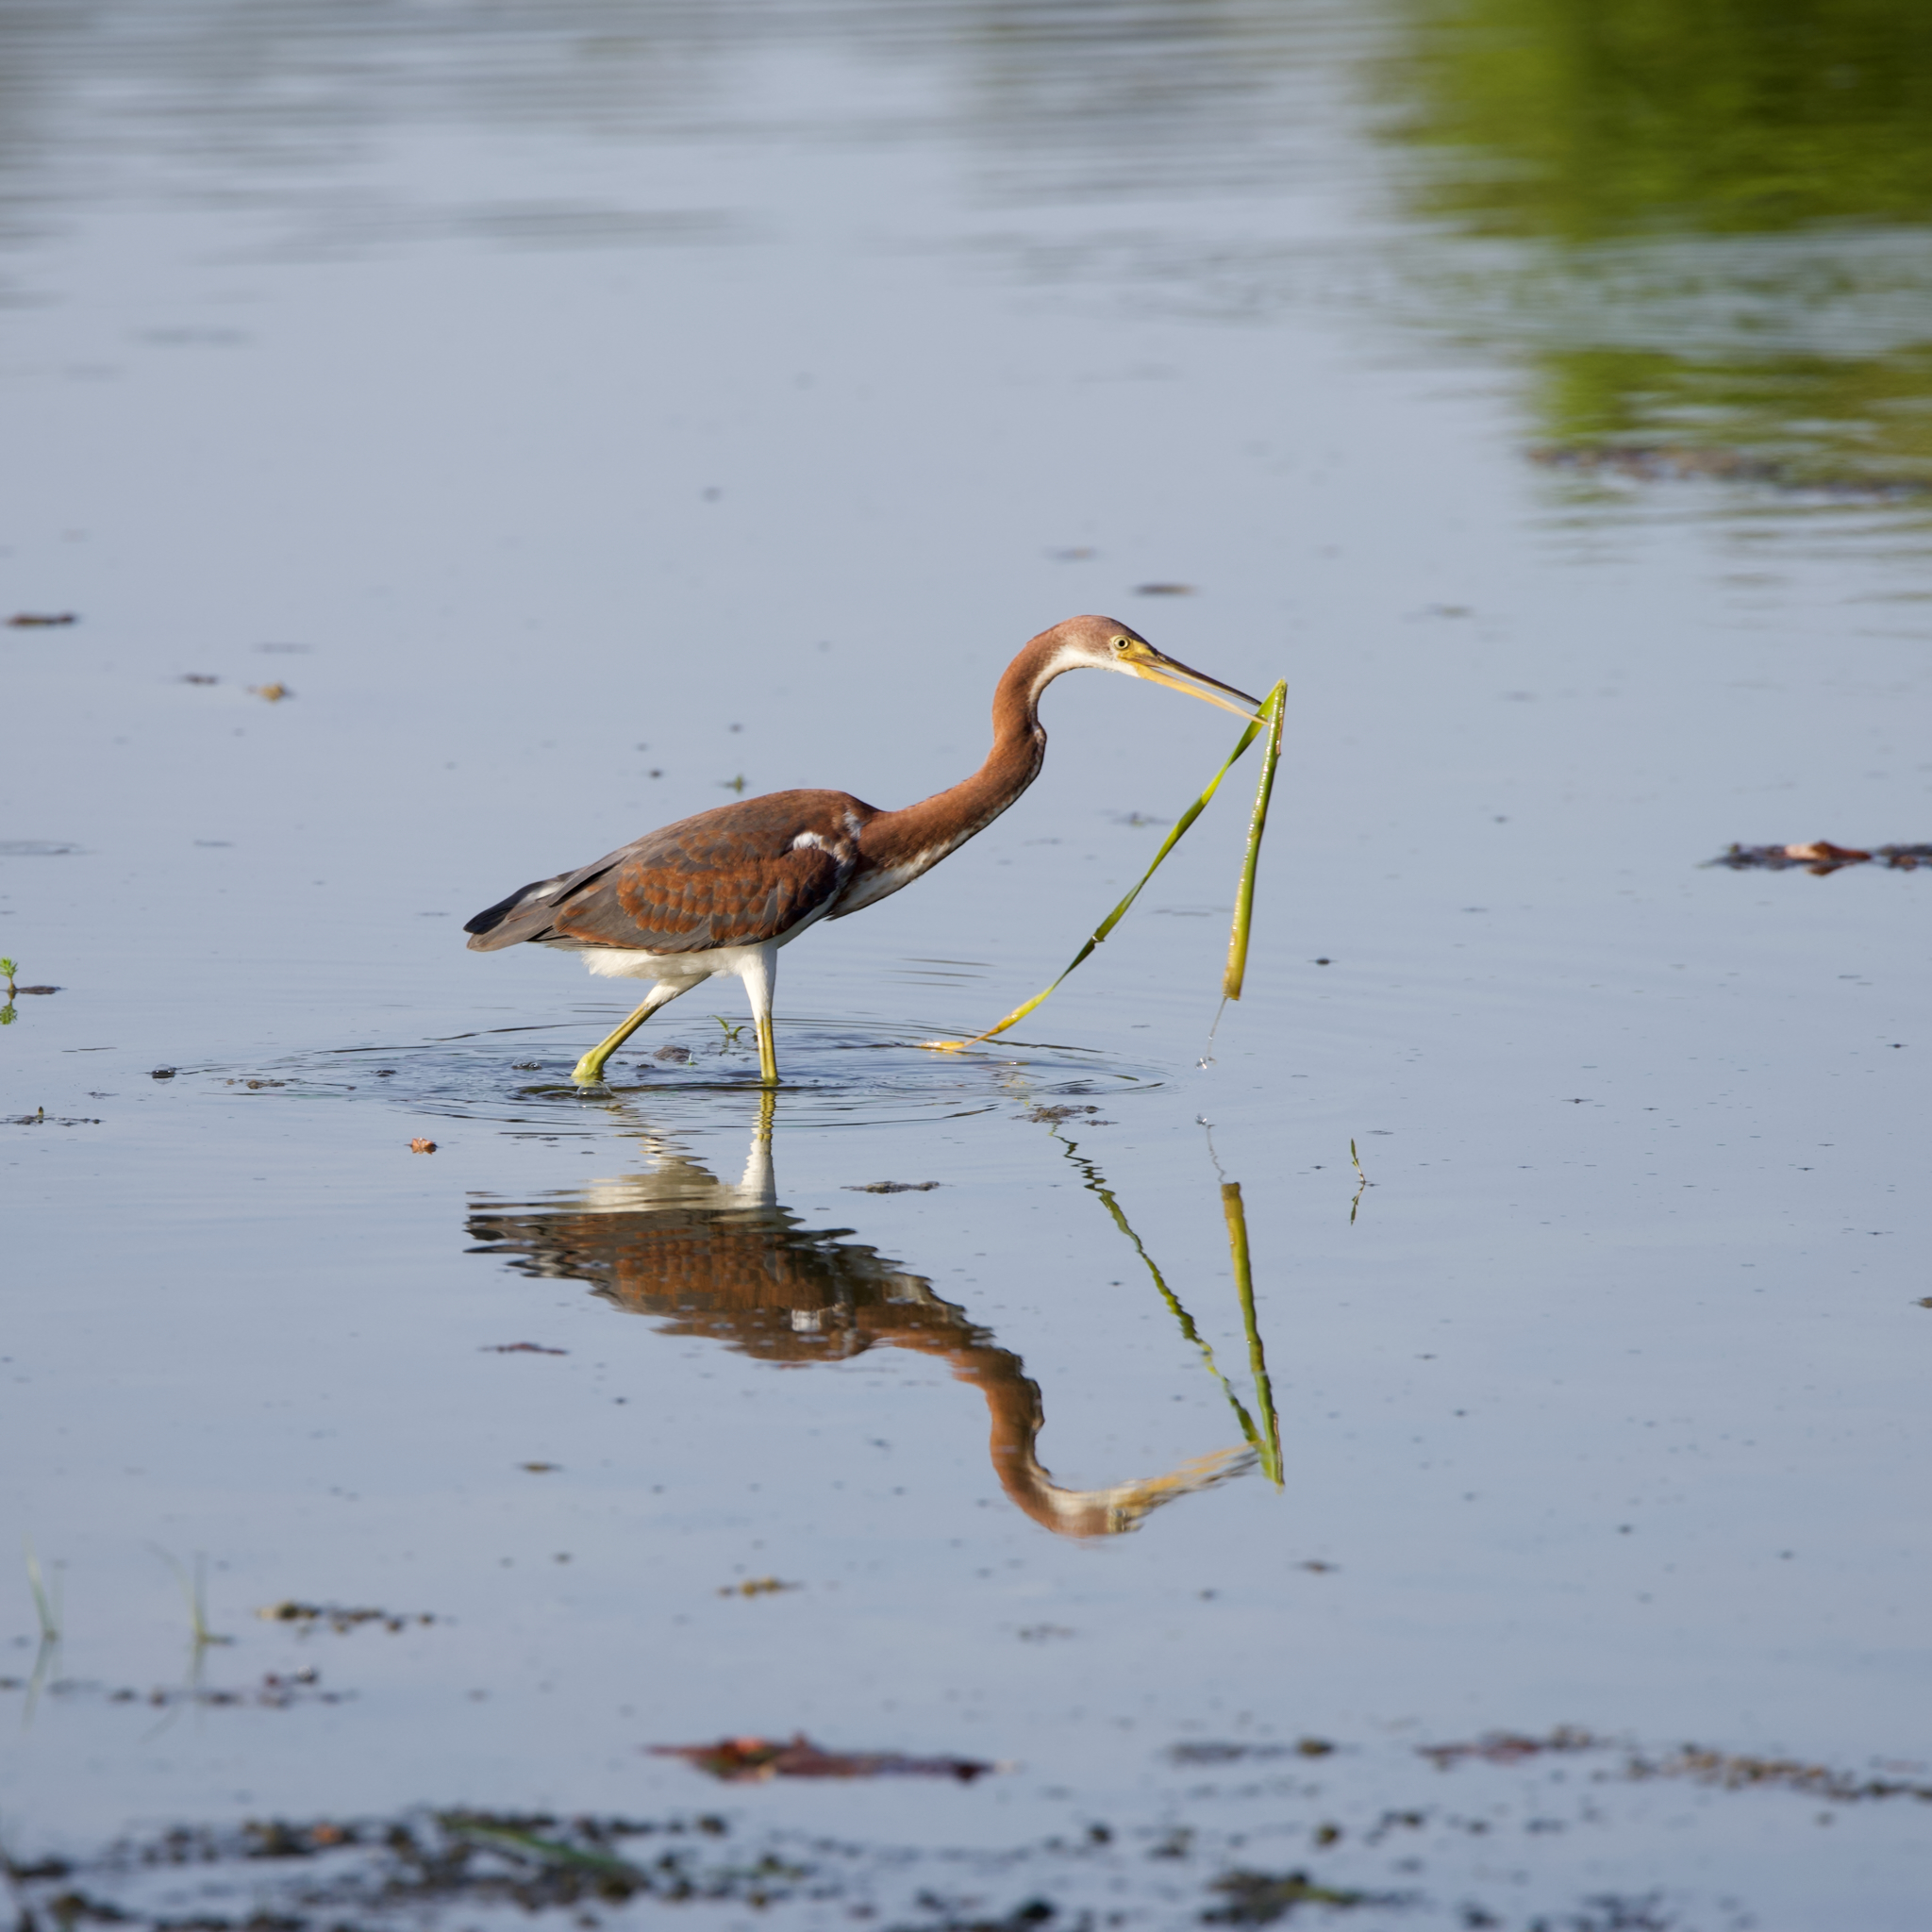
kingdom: Animalia
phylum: Chordata
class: Aves
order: Pelecaniformes
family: Ardeidae
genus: Egretta
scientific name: Egretta tricolor
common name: Tricolored heron
